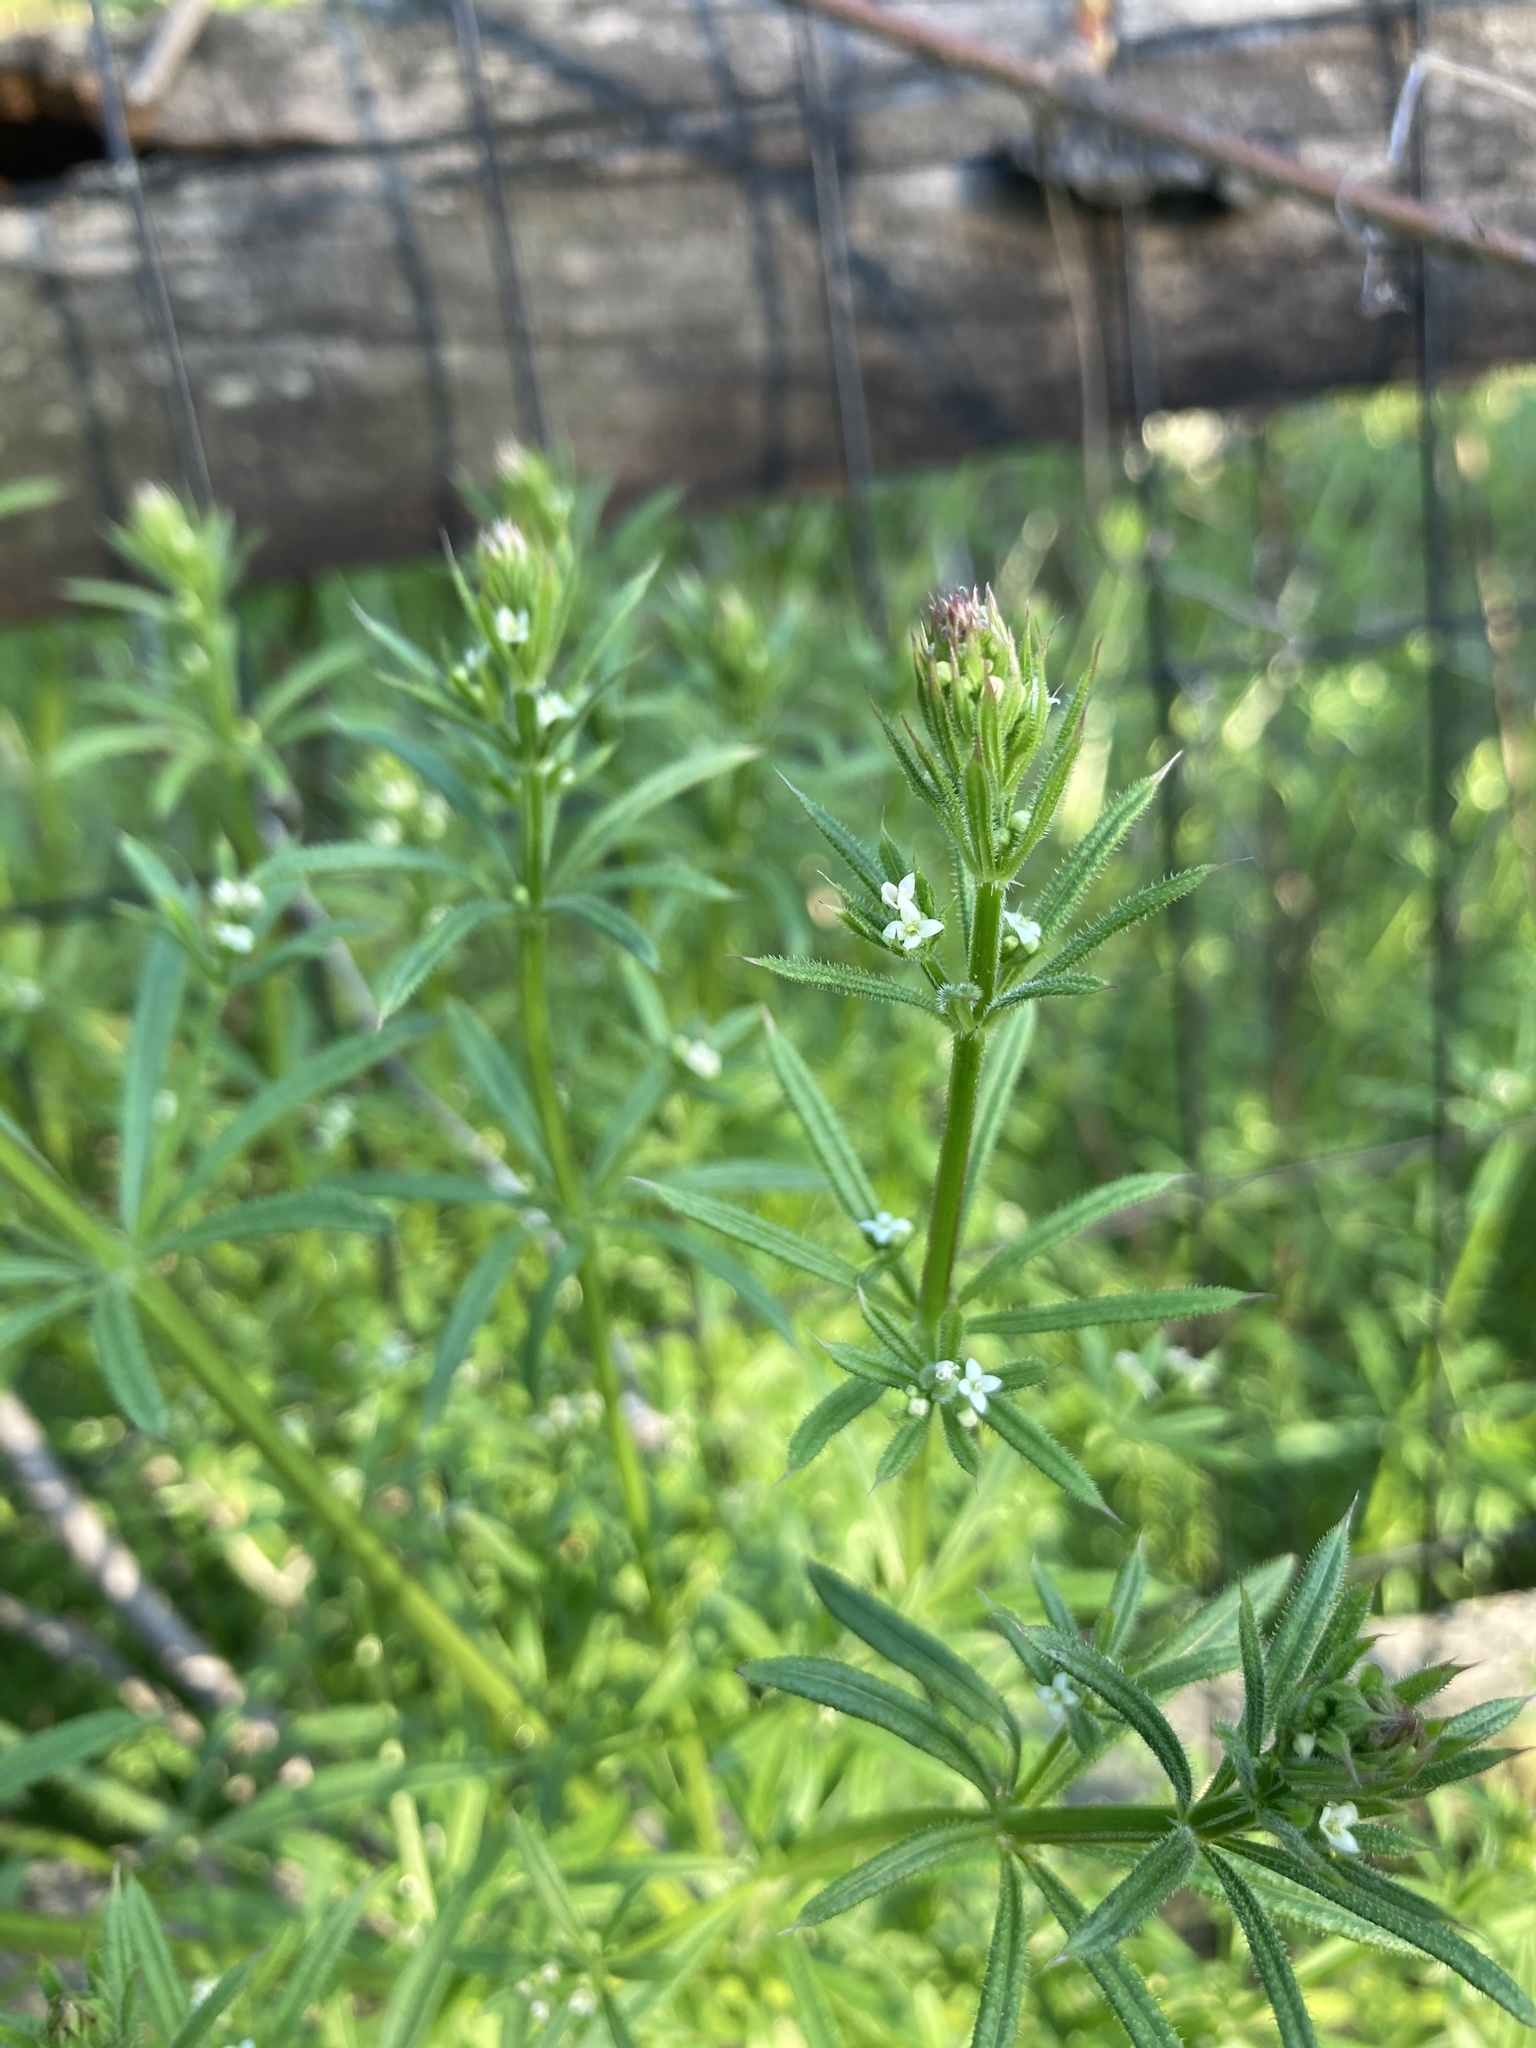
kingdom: Plantae
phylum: Tracheophyta
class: Magnoliopsida
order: Gentianales
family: Rubiaceae
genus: Galium
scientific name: Galium aparine
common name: Cleavers
